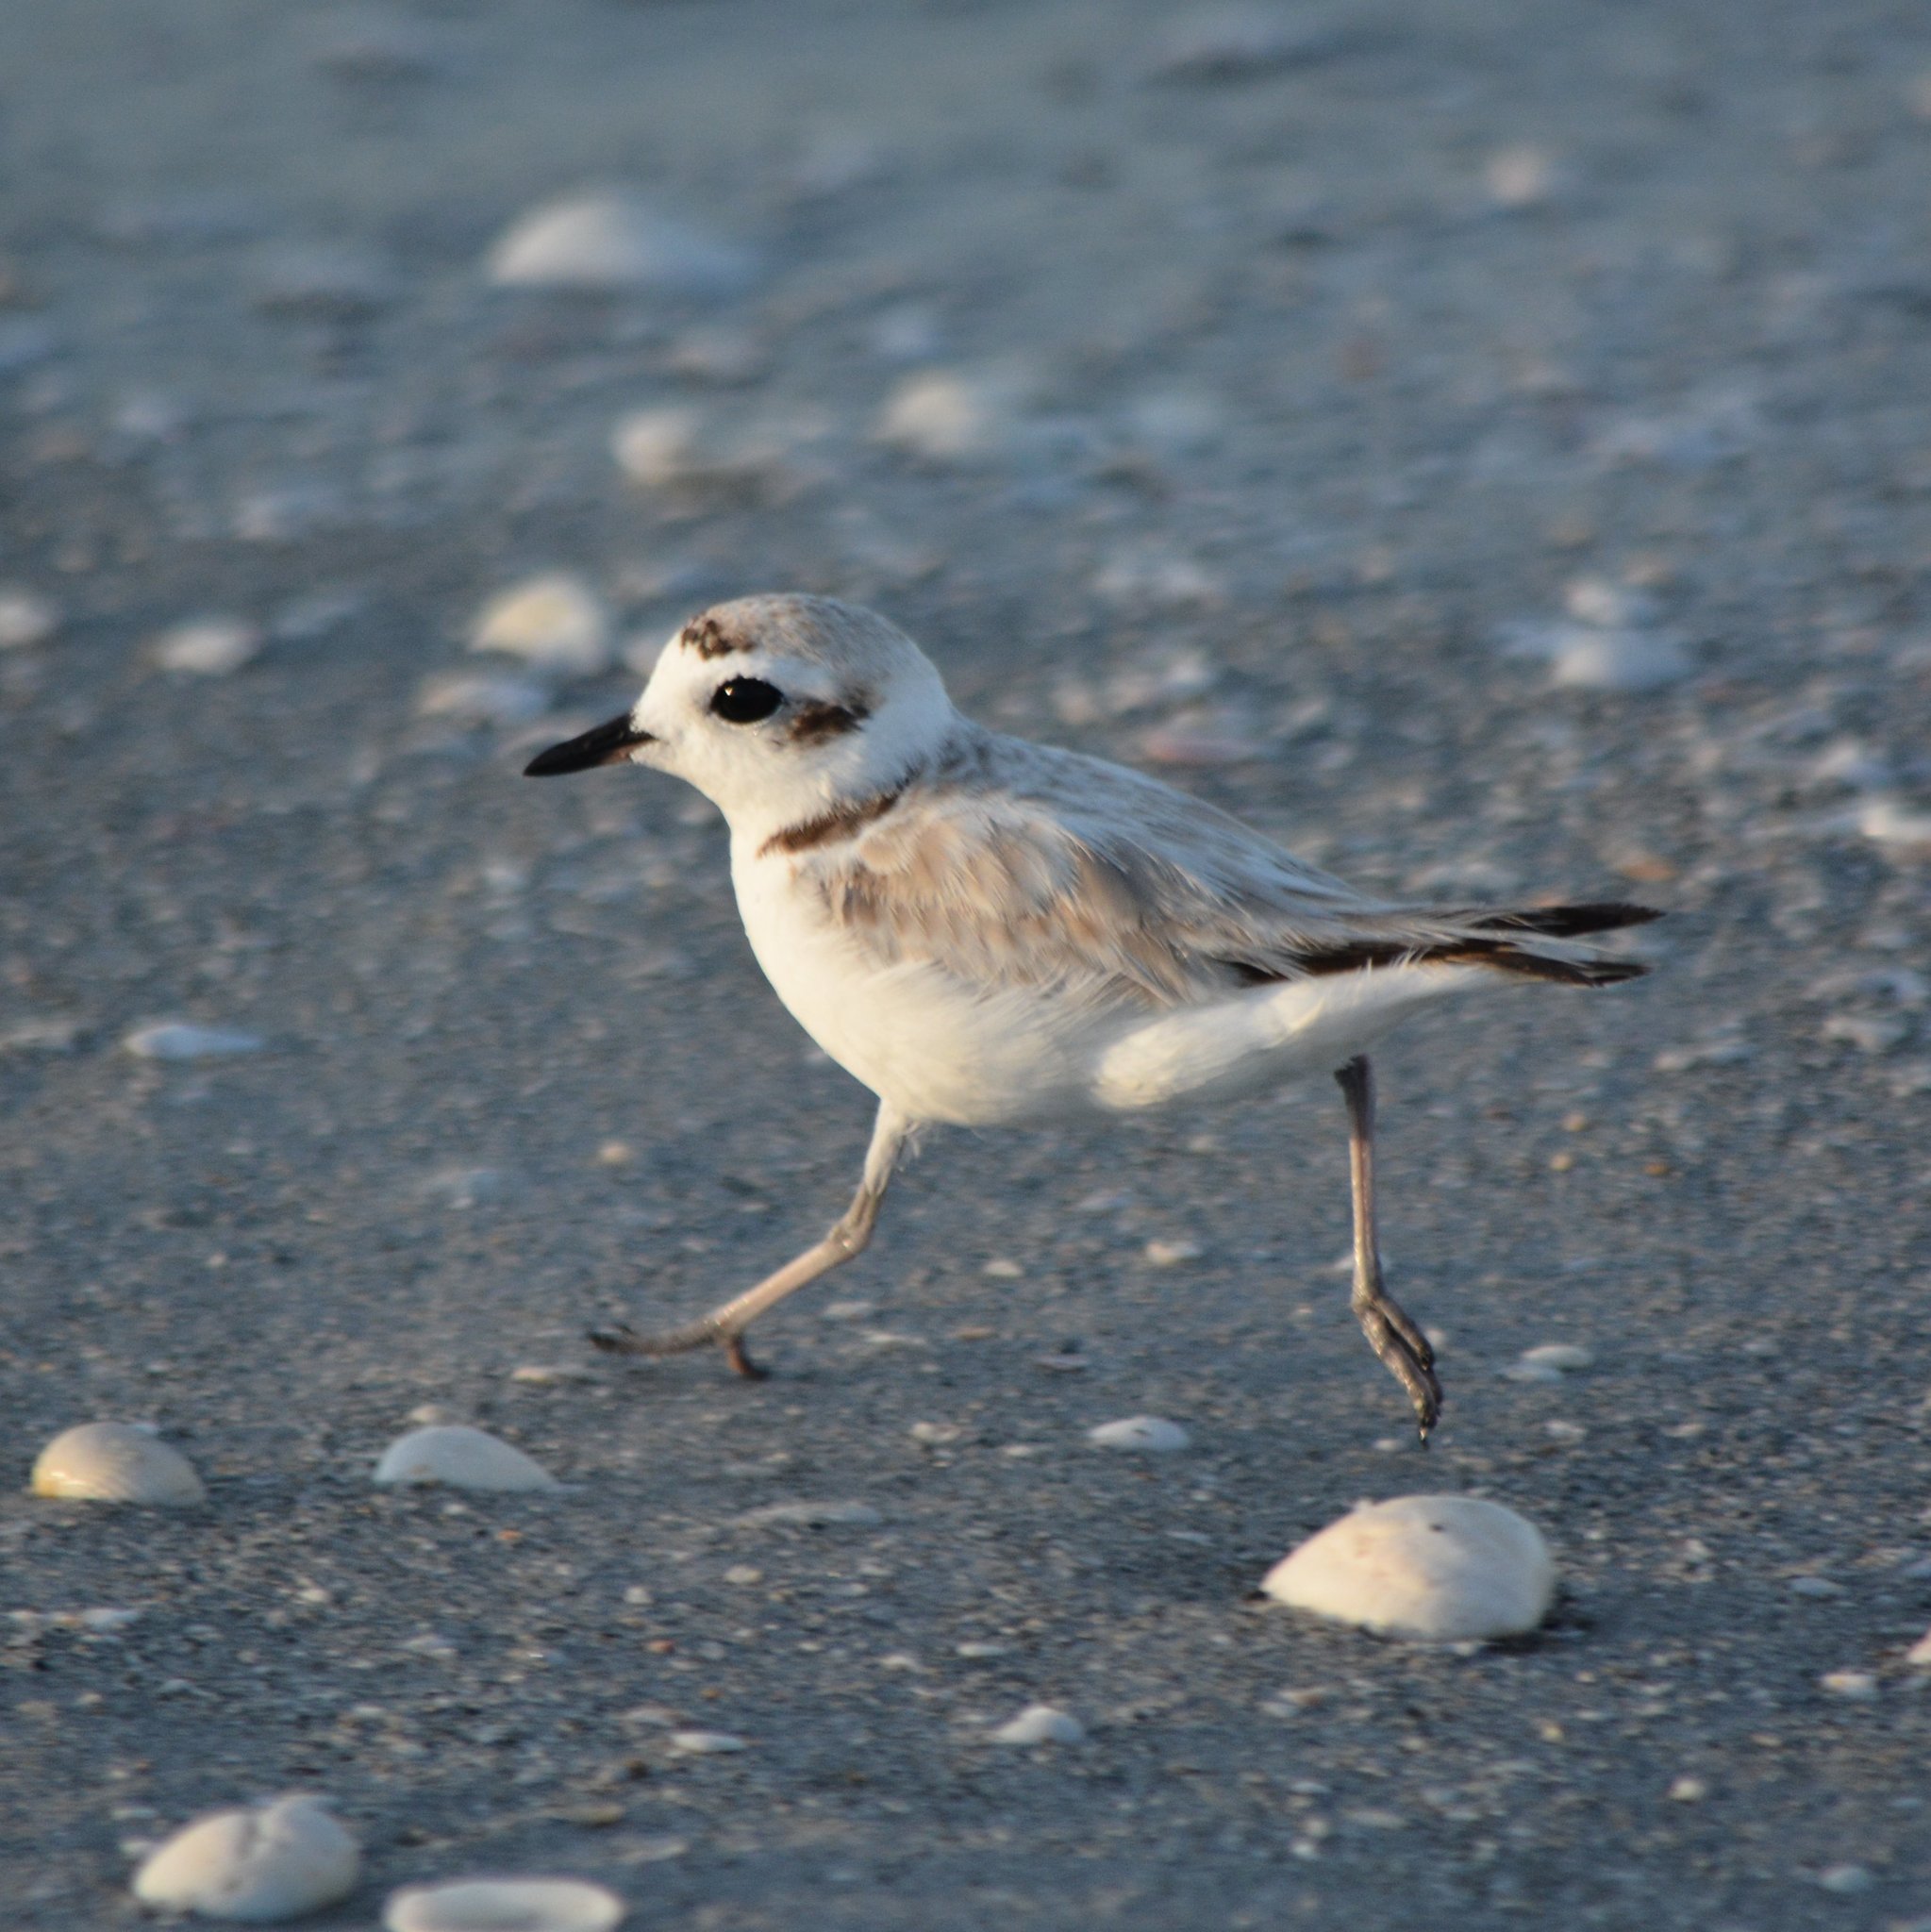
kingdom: Animalia
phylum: Chordata
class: Aves
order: Charadriiformes
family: Charadriidae
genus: Anarhynchus
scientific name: Anarhynchus
